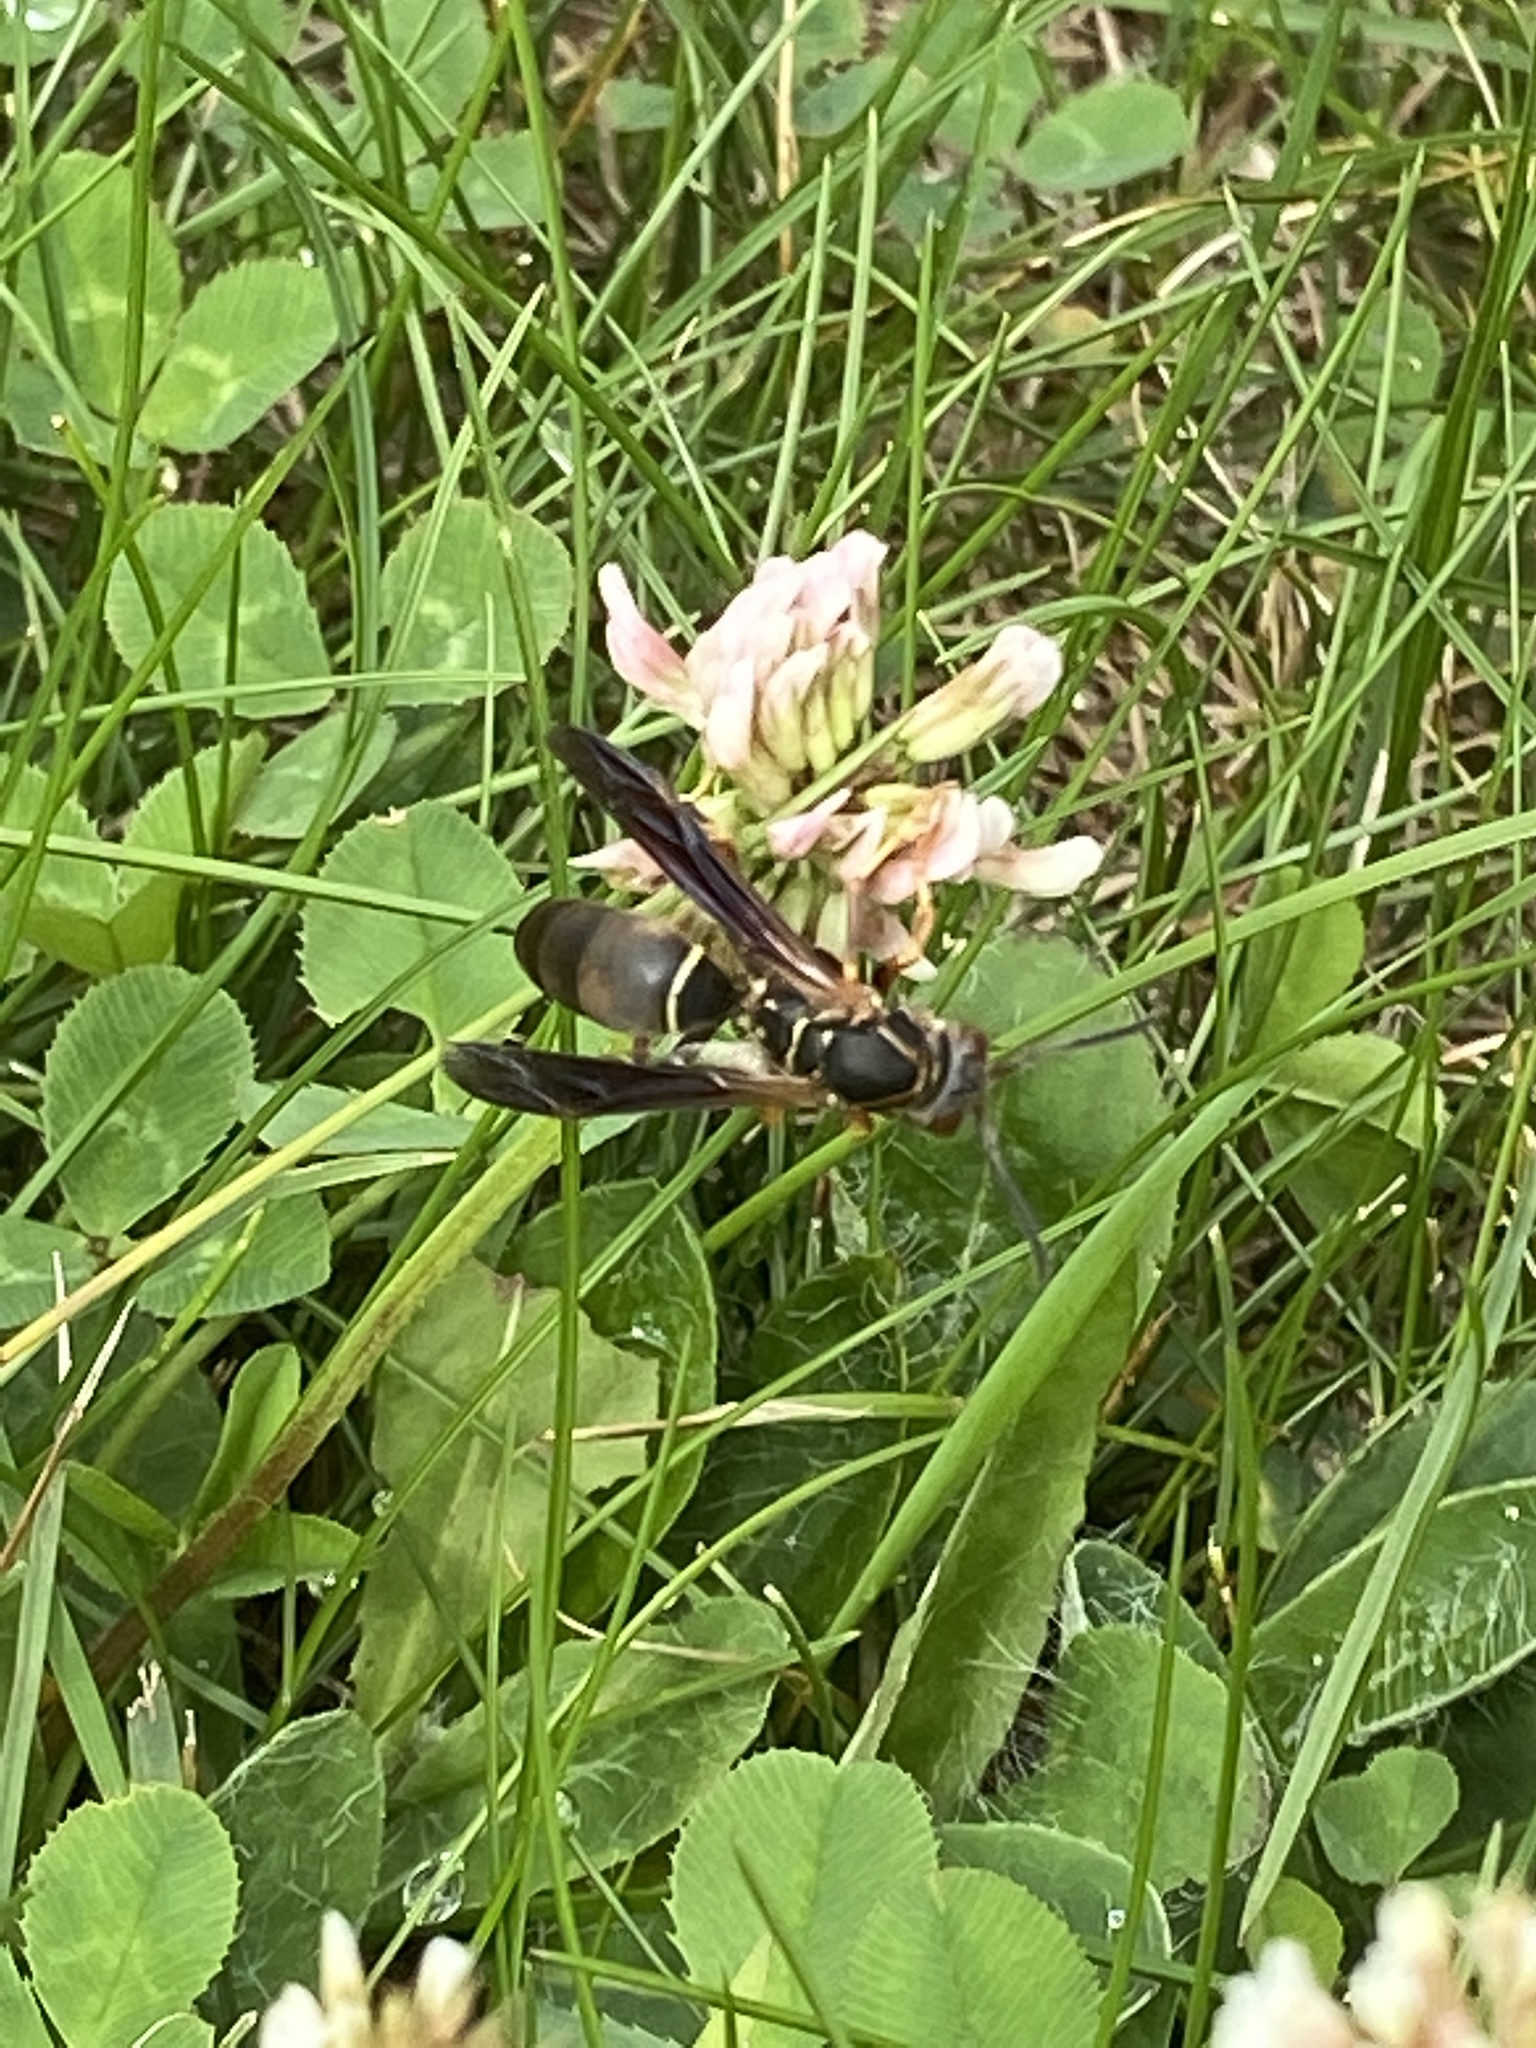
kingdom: Animalia
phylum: Arthropoda
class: Insecta
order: Hymenoptera
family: Eumenidae
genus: Polistes
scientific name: Polistes fuscatus
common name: Dark paper wasp
